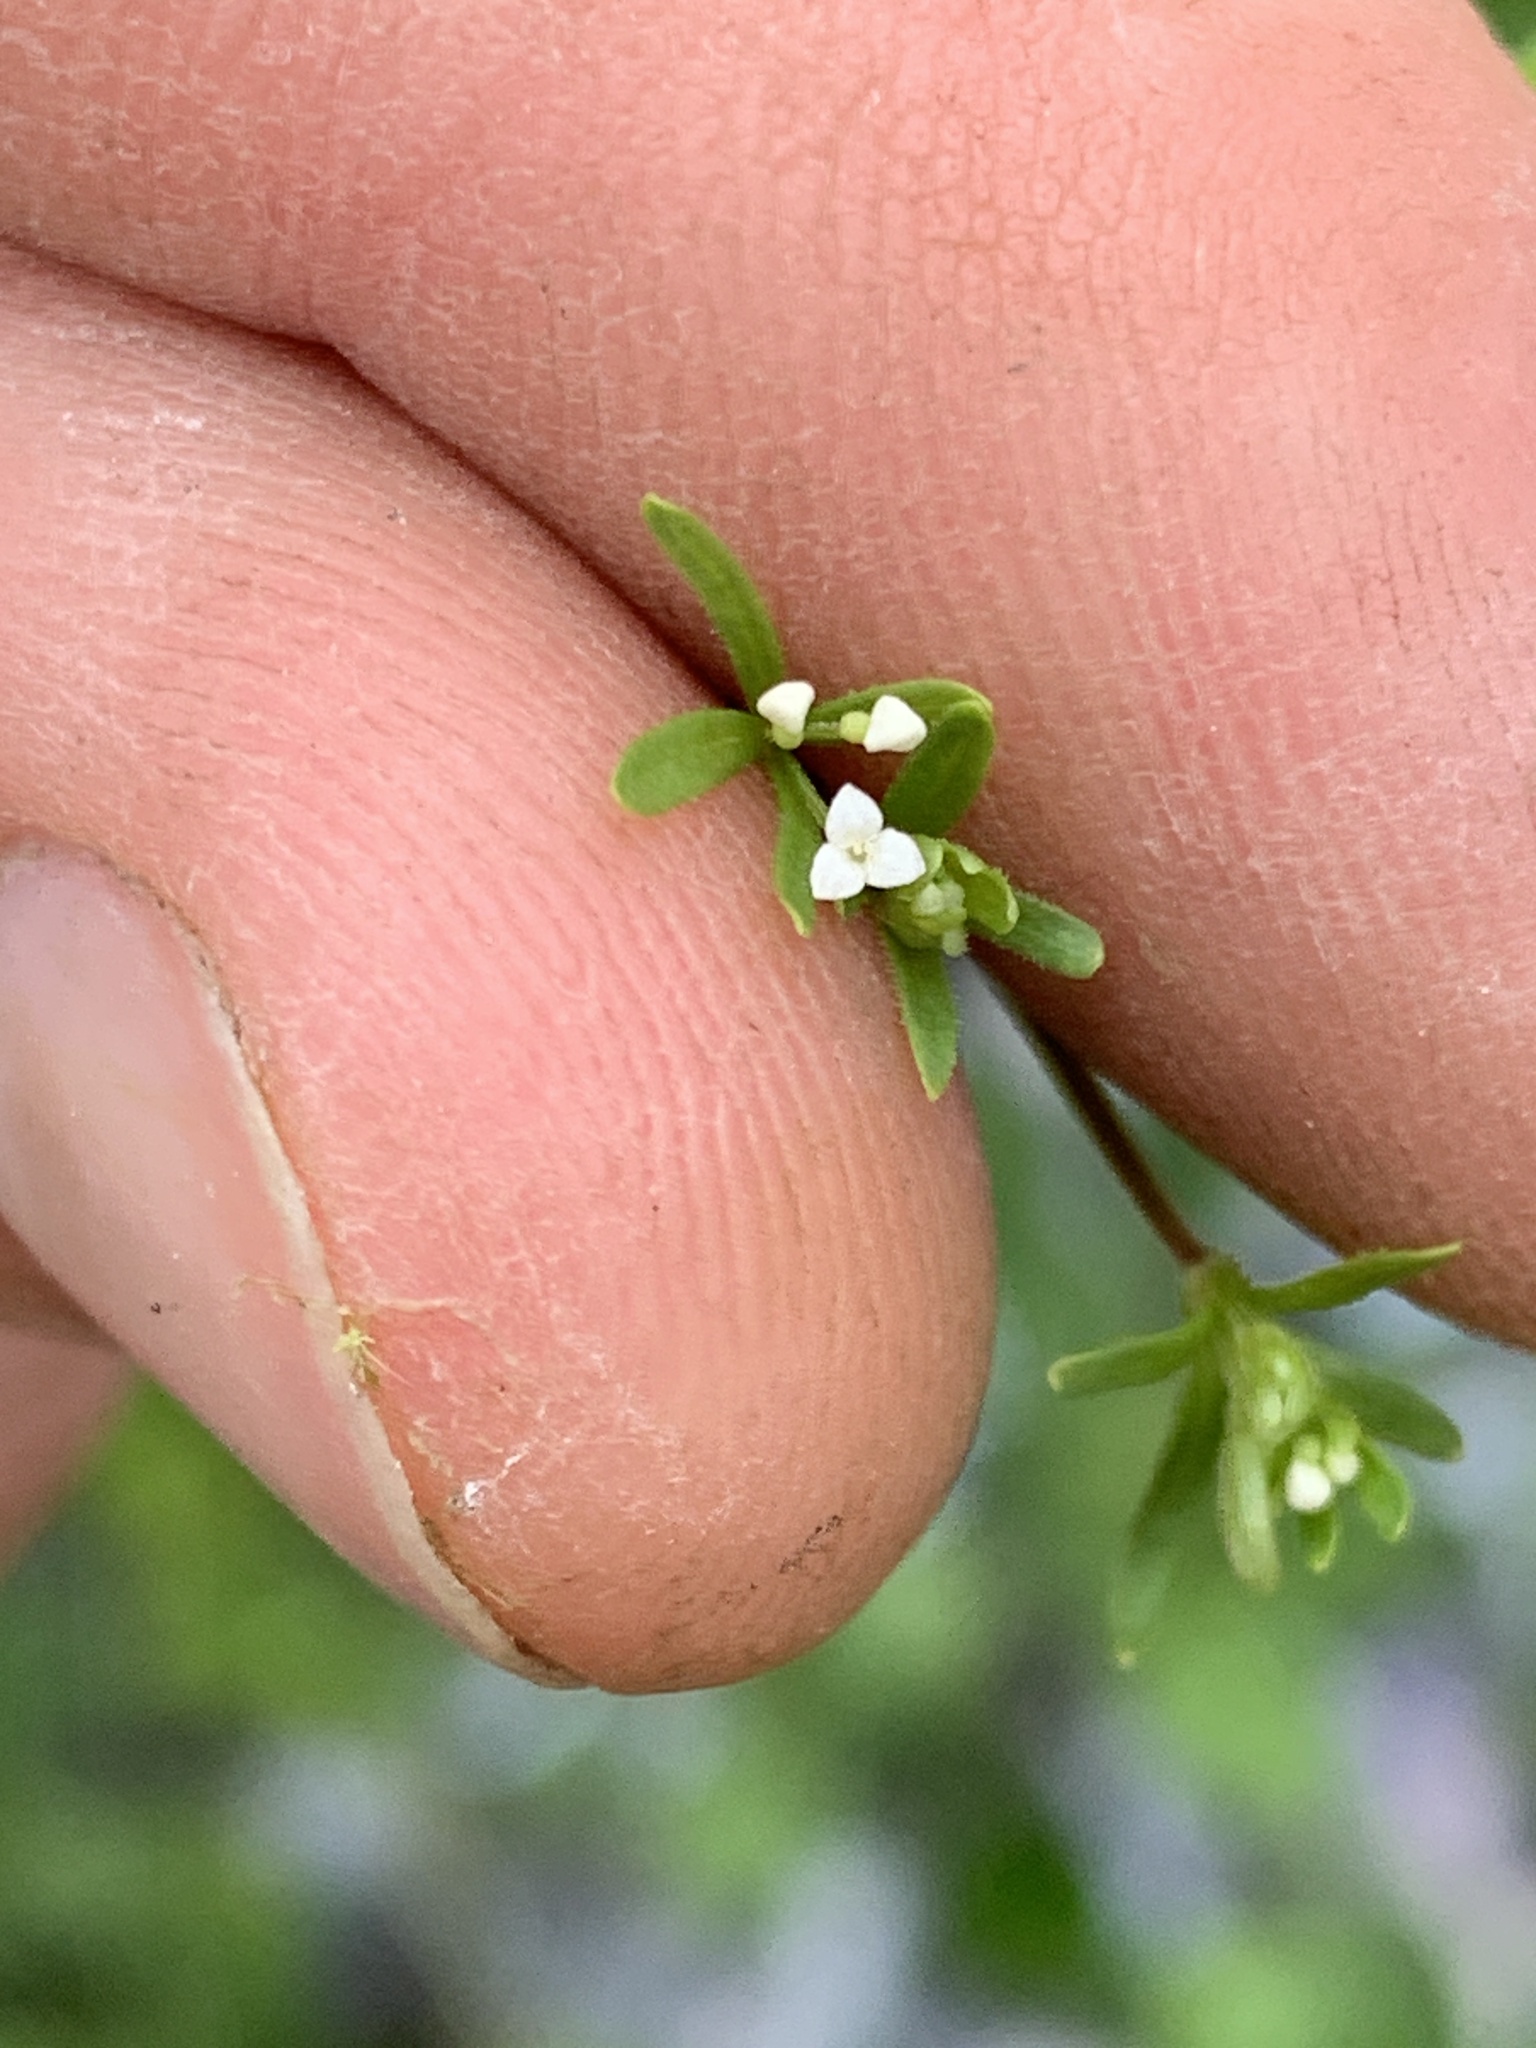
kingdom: Plantae
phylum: Tracheophyta
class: Magnoliopsida
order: Gentianales
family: Rubiaceae
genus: Galium
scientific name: Galium trifidum
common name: Small bedstraw
